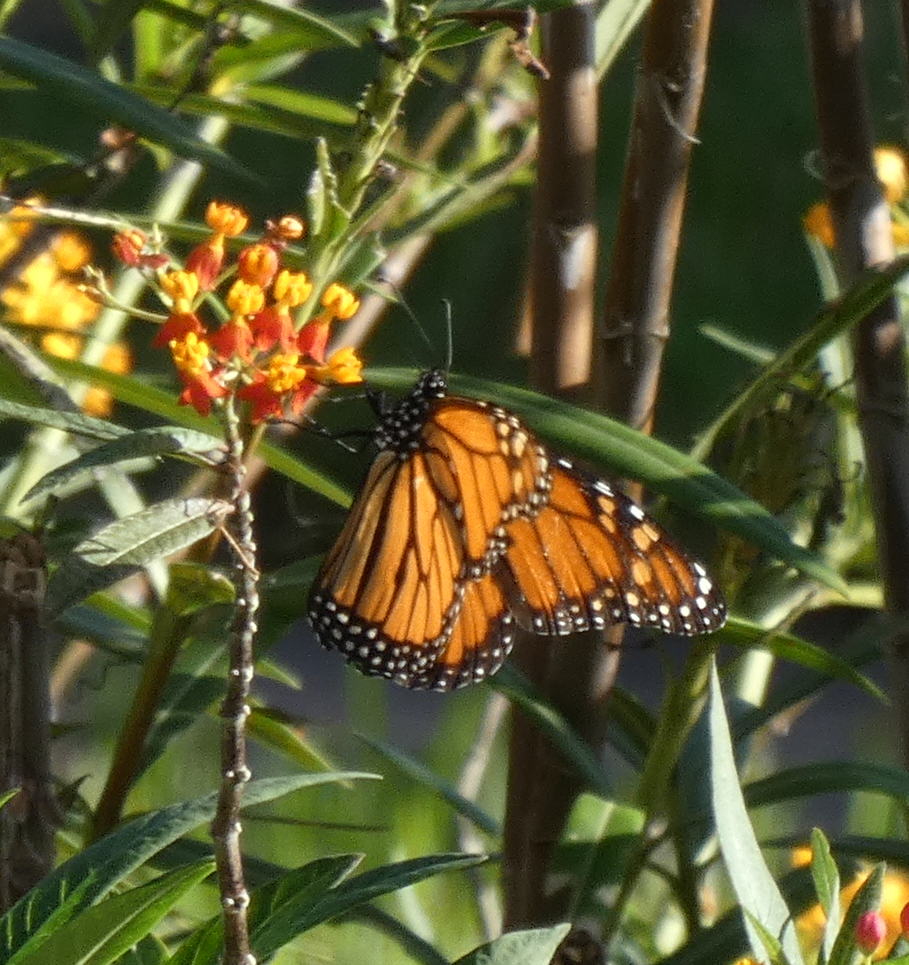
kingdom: Animalia
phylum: Arthropoda
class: Insecta
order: Lepidoptera
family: Nymphalidae
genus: Danaus
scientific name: Danaus plexippus
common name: Monarch
